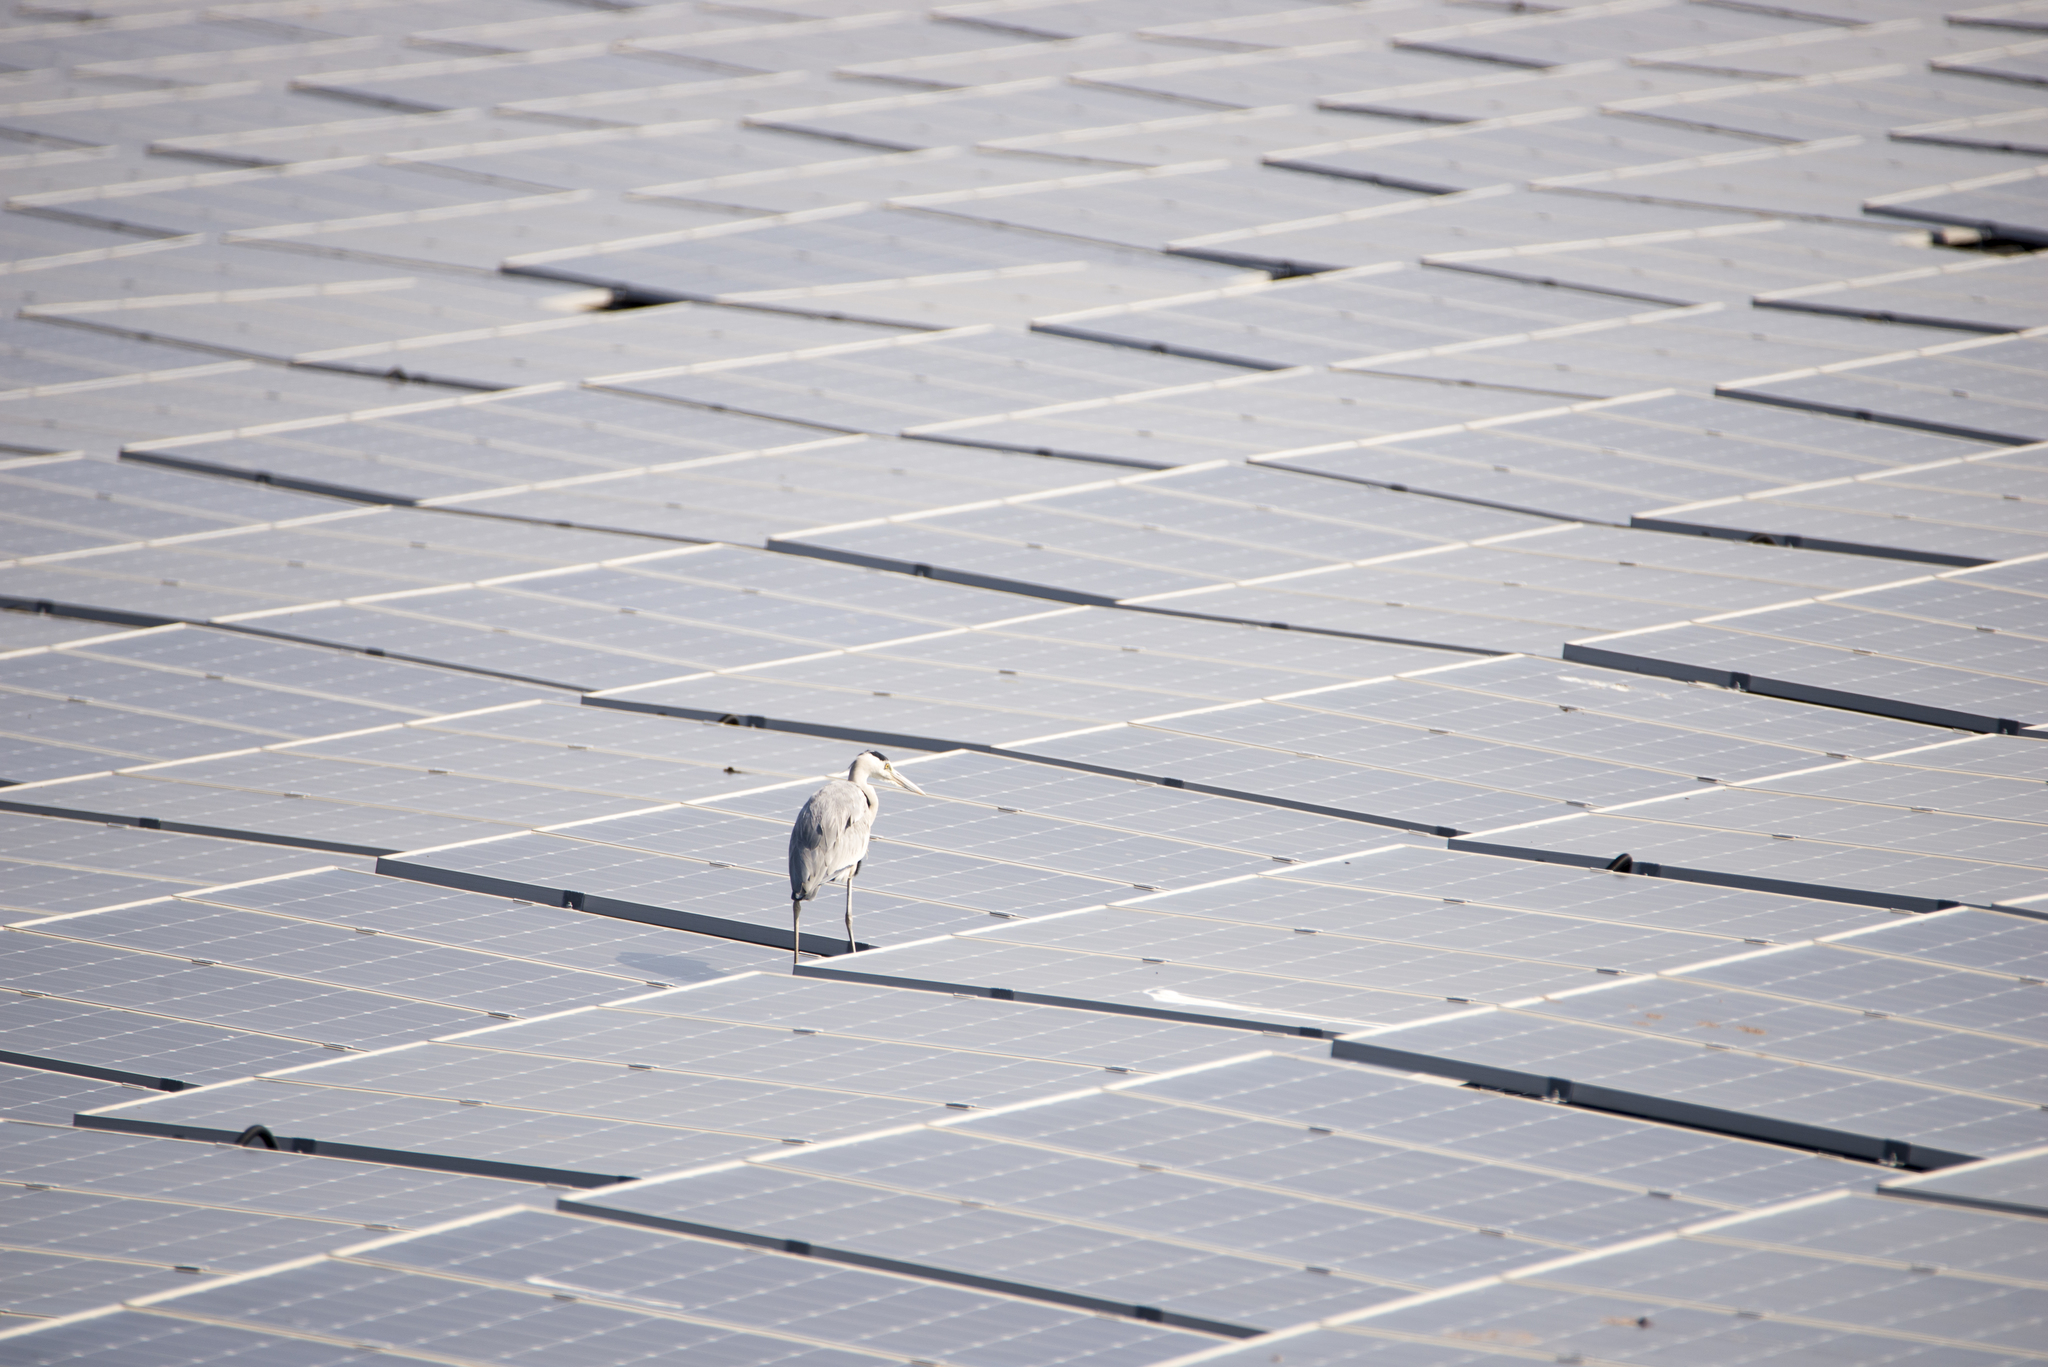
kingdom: Animalia
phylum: Chordata
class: Aves
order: Pelecaniformes
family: Ardeidae
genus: Ardea
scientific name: Ardea cinerea
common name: Grey heron
